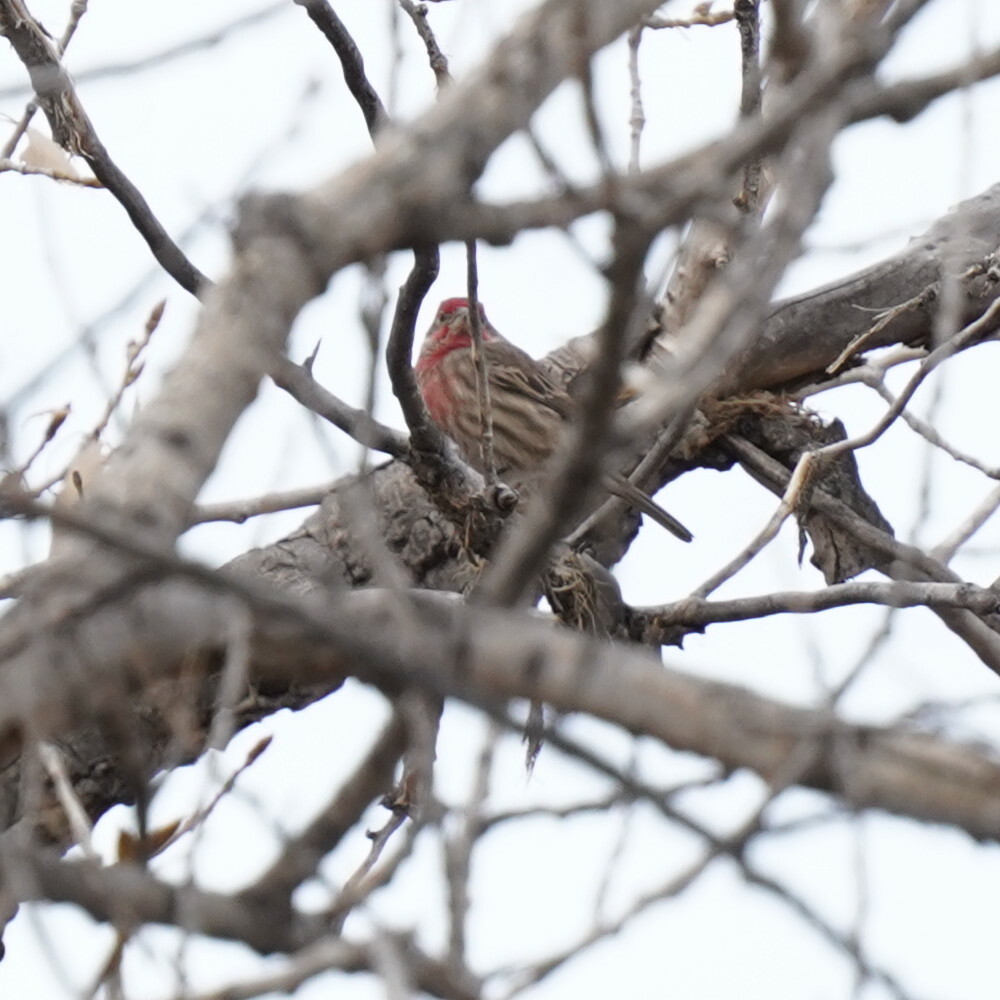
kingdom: Animalia
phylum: Chordata
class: Aves
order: Passeriformes
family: Fringillidae
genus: Haemorhous
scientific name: Haemorhous mexicanus
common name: House finch
